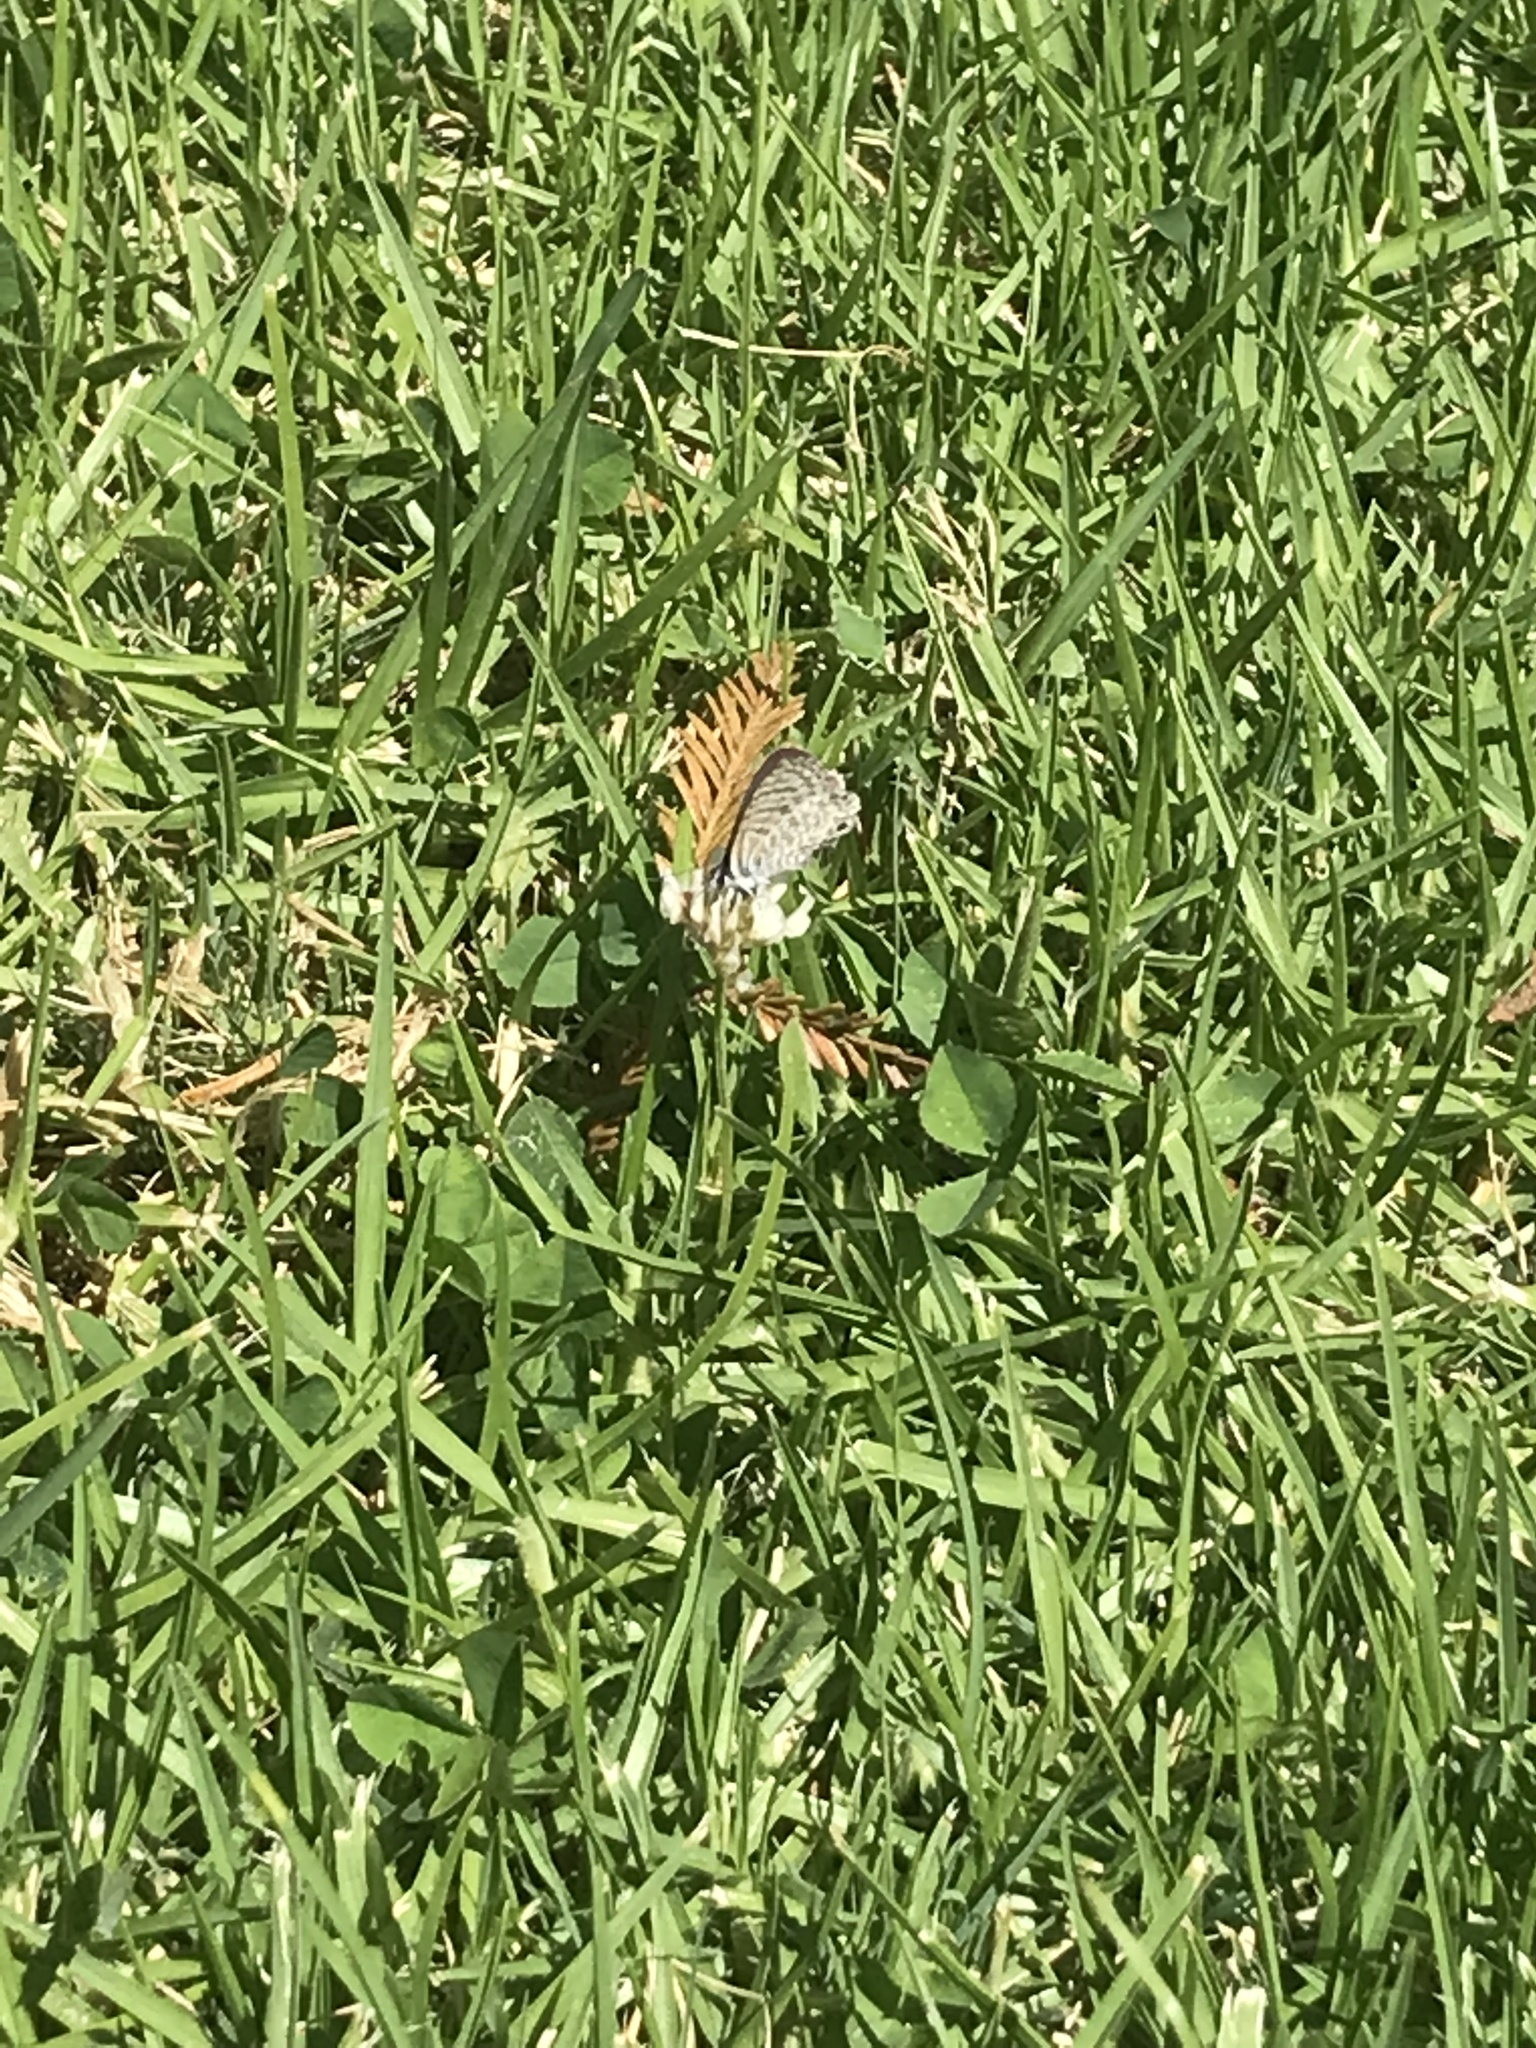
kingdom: Animalia
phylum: Arthropoda
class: Insecta
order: Lepidoptera
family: Lycaenidae
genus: Leptotes
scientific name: Leptotes marina
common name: Marine blue
